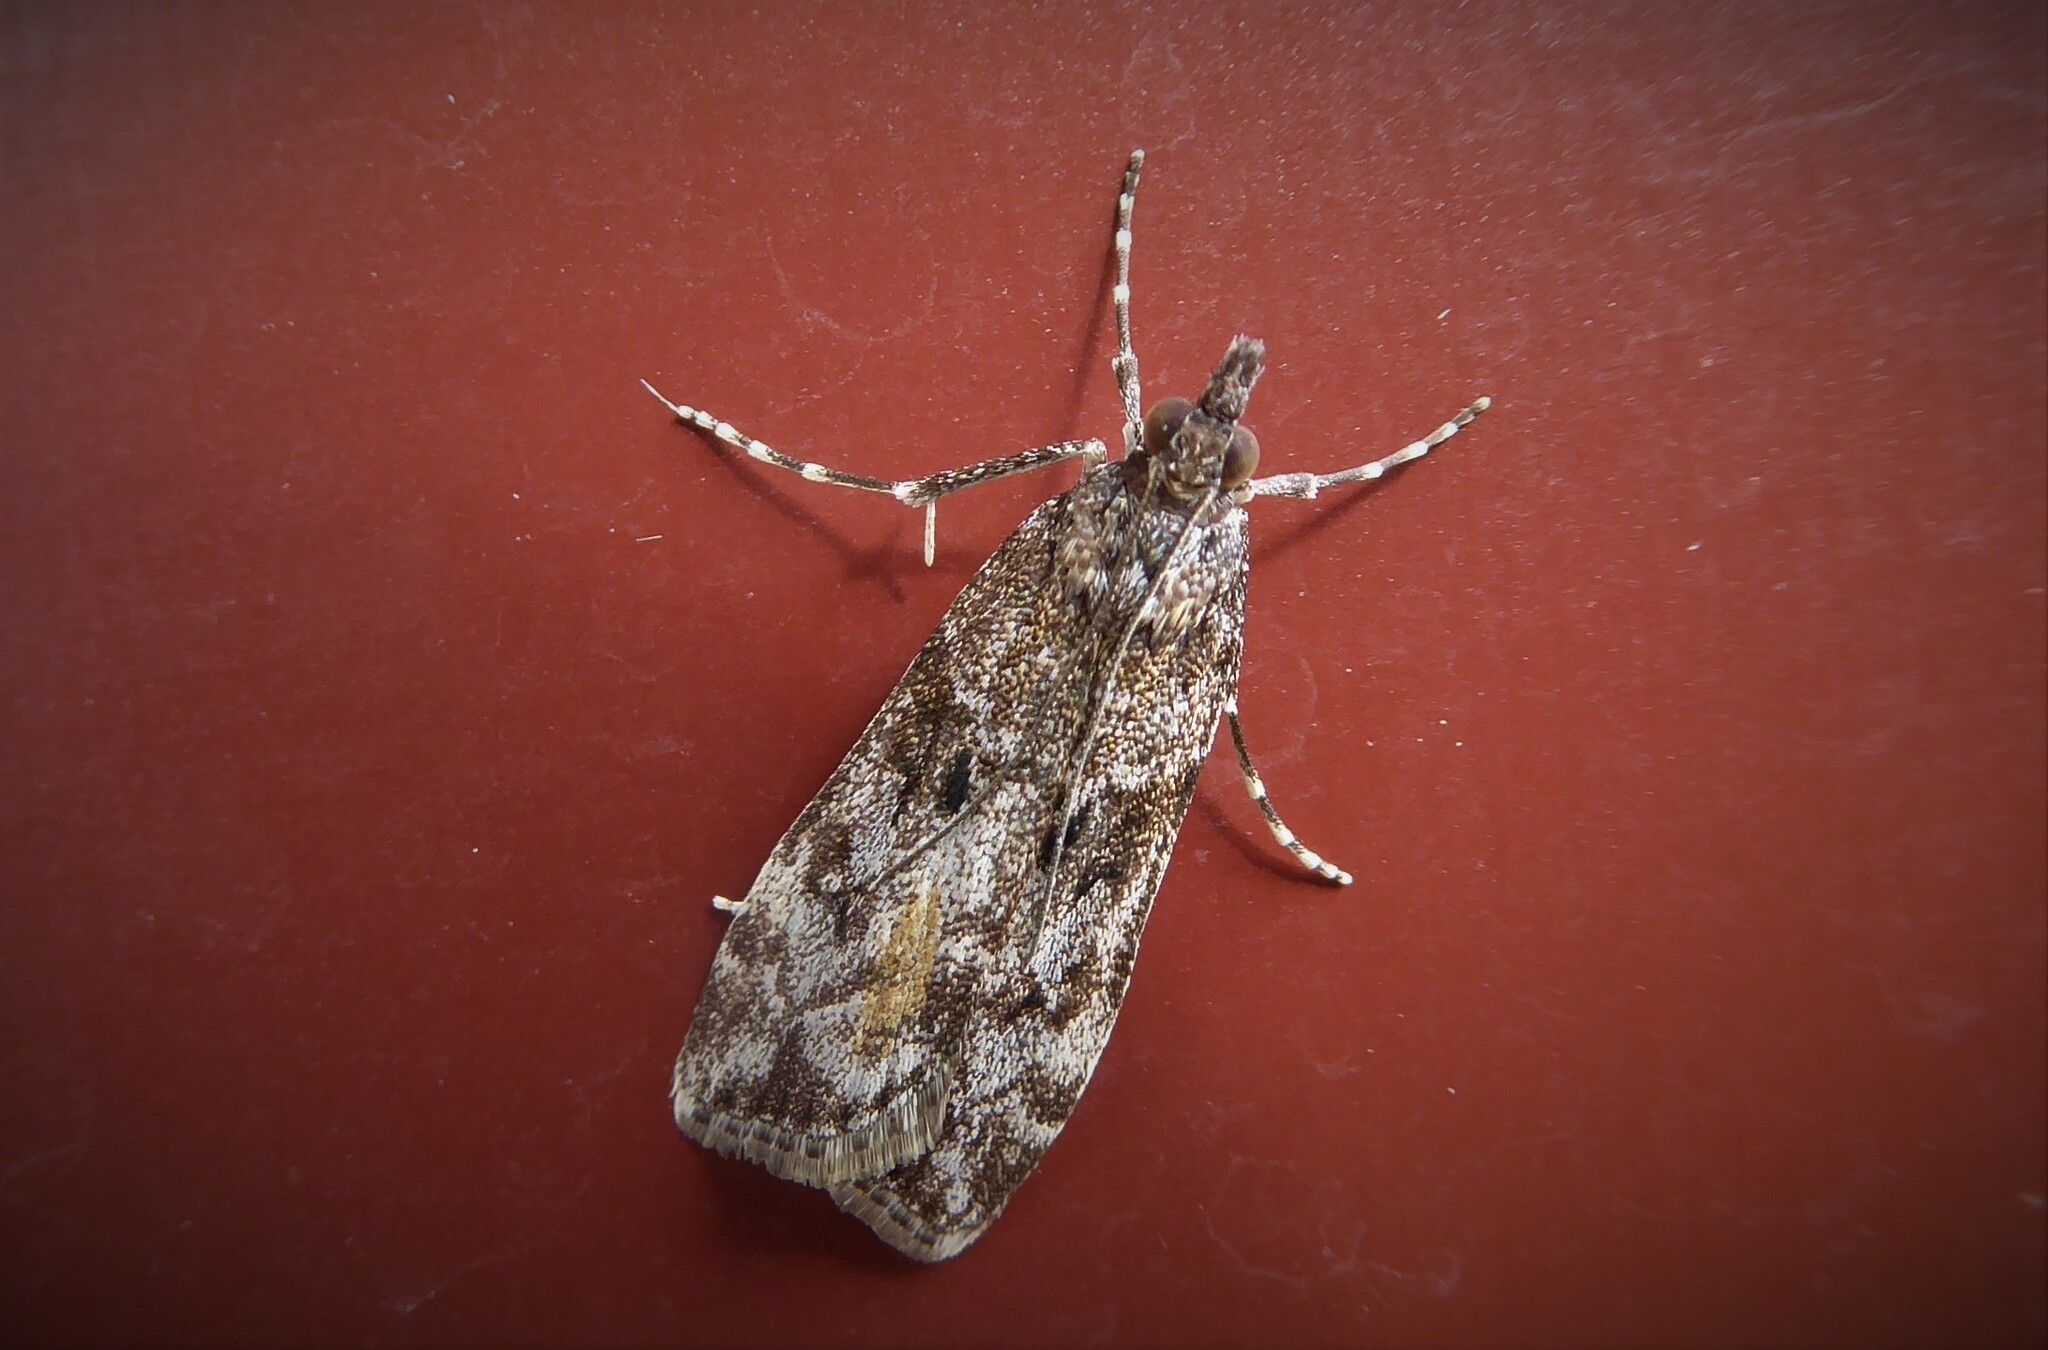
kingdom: Animalia
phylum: Arthropoda
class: Insecta
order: Lepidoptera
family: Crambidae
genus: Eudonia
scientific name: Eudonia submarginalis
